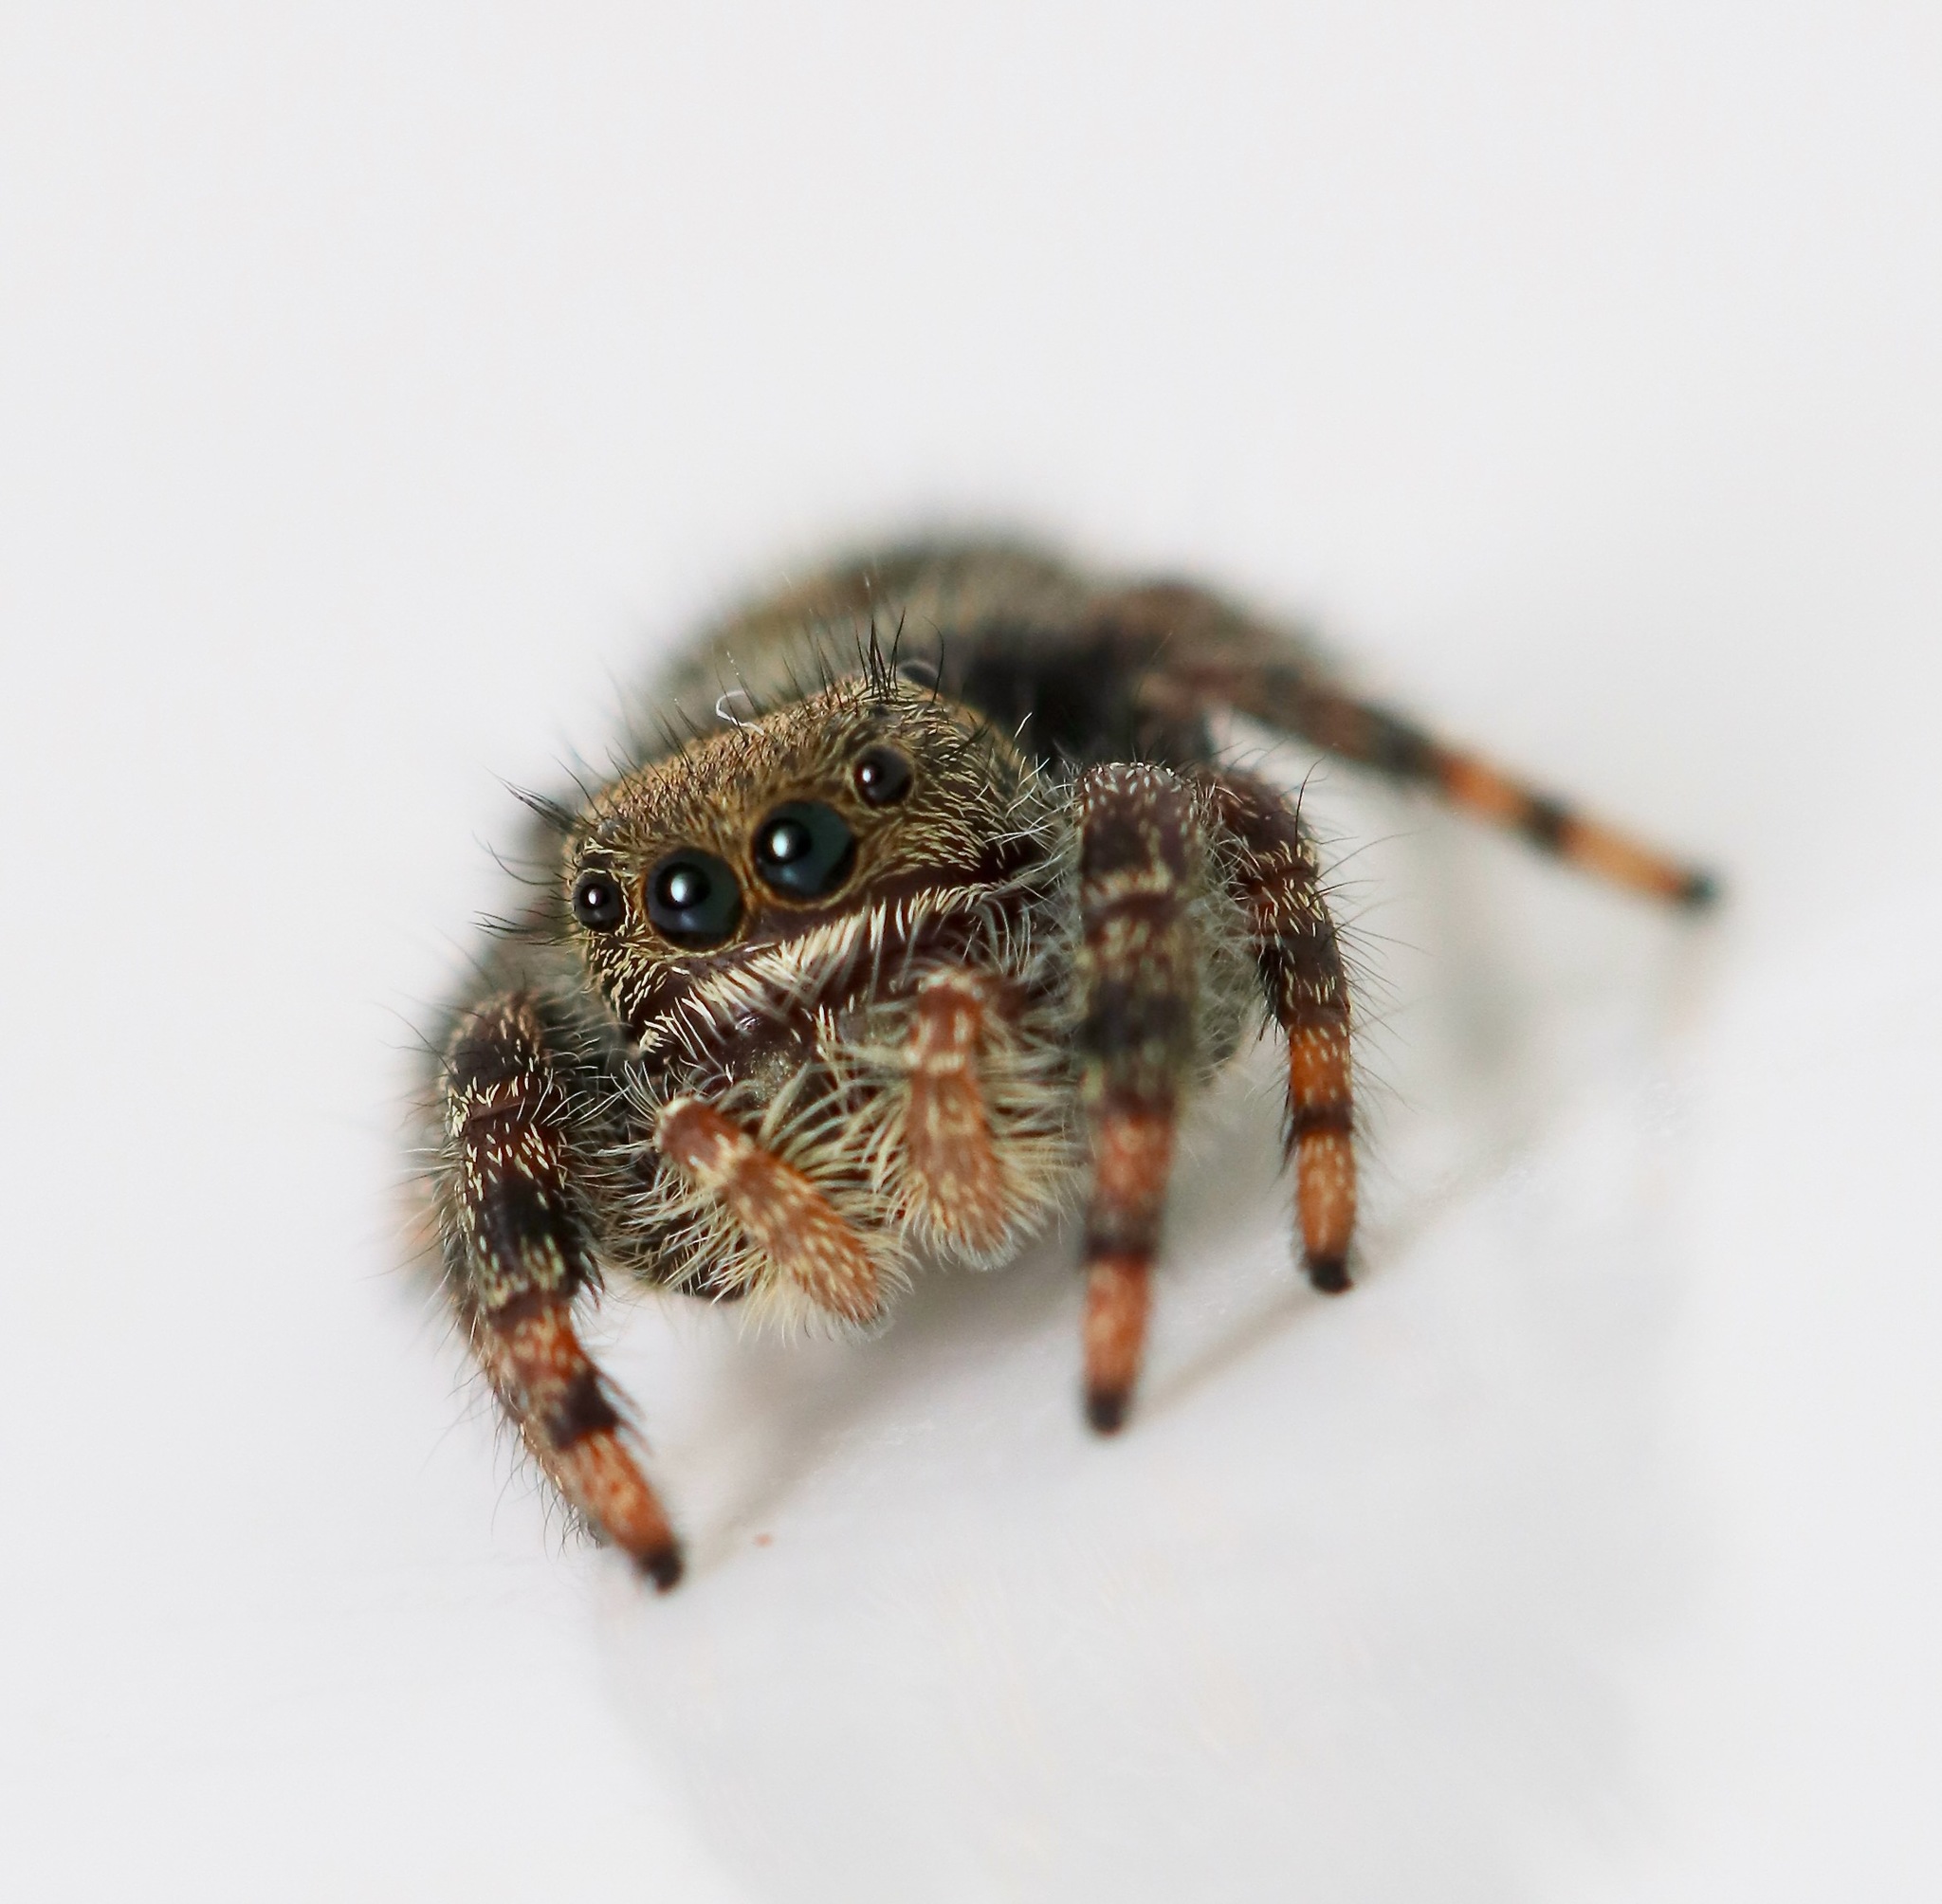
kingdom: Animalia
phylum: Arthropoda
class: Arachnida
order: Araneae
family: Salticidae
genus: Phidippus
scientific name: Phidippus audax
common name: Bold jumper
